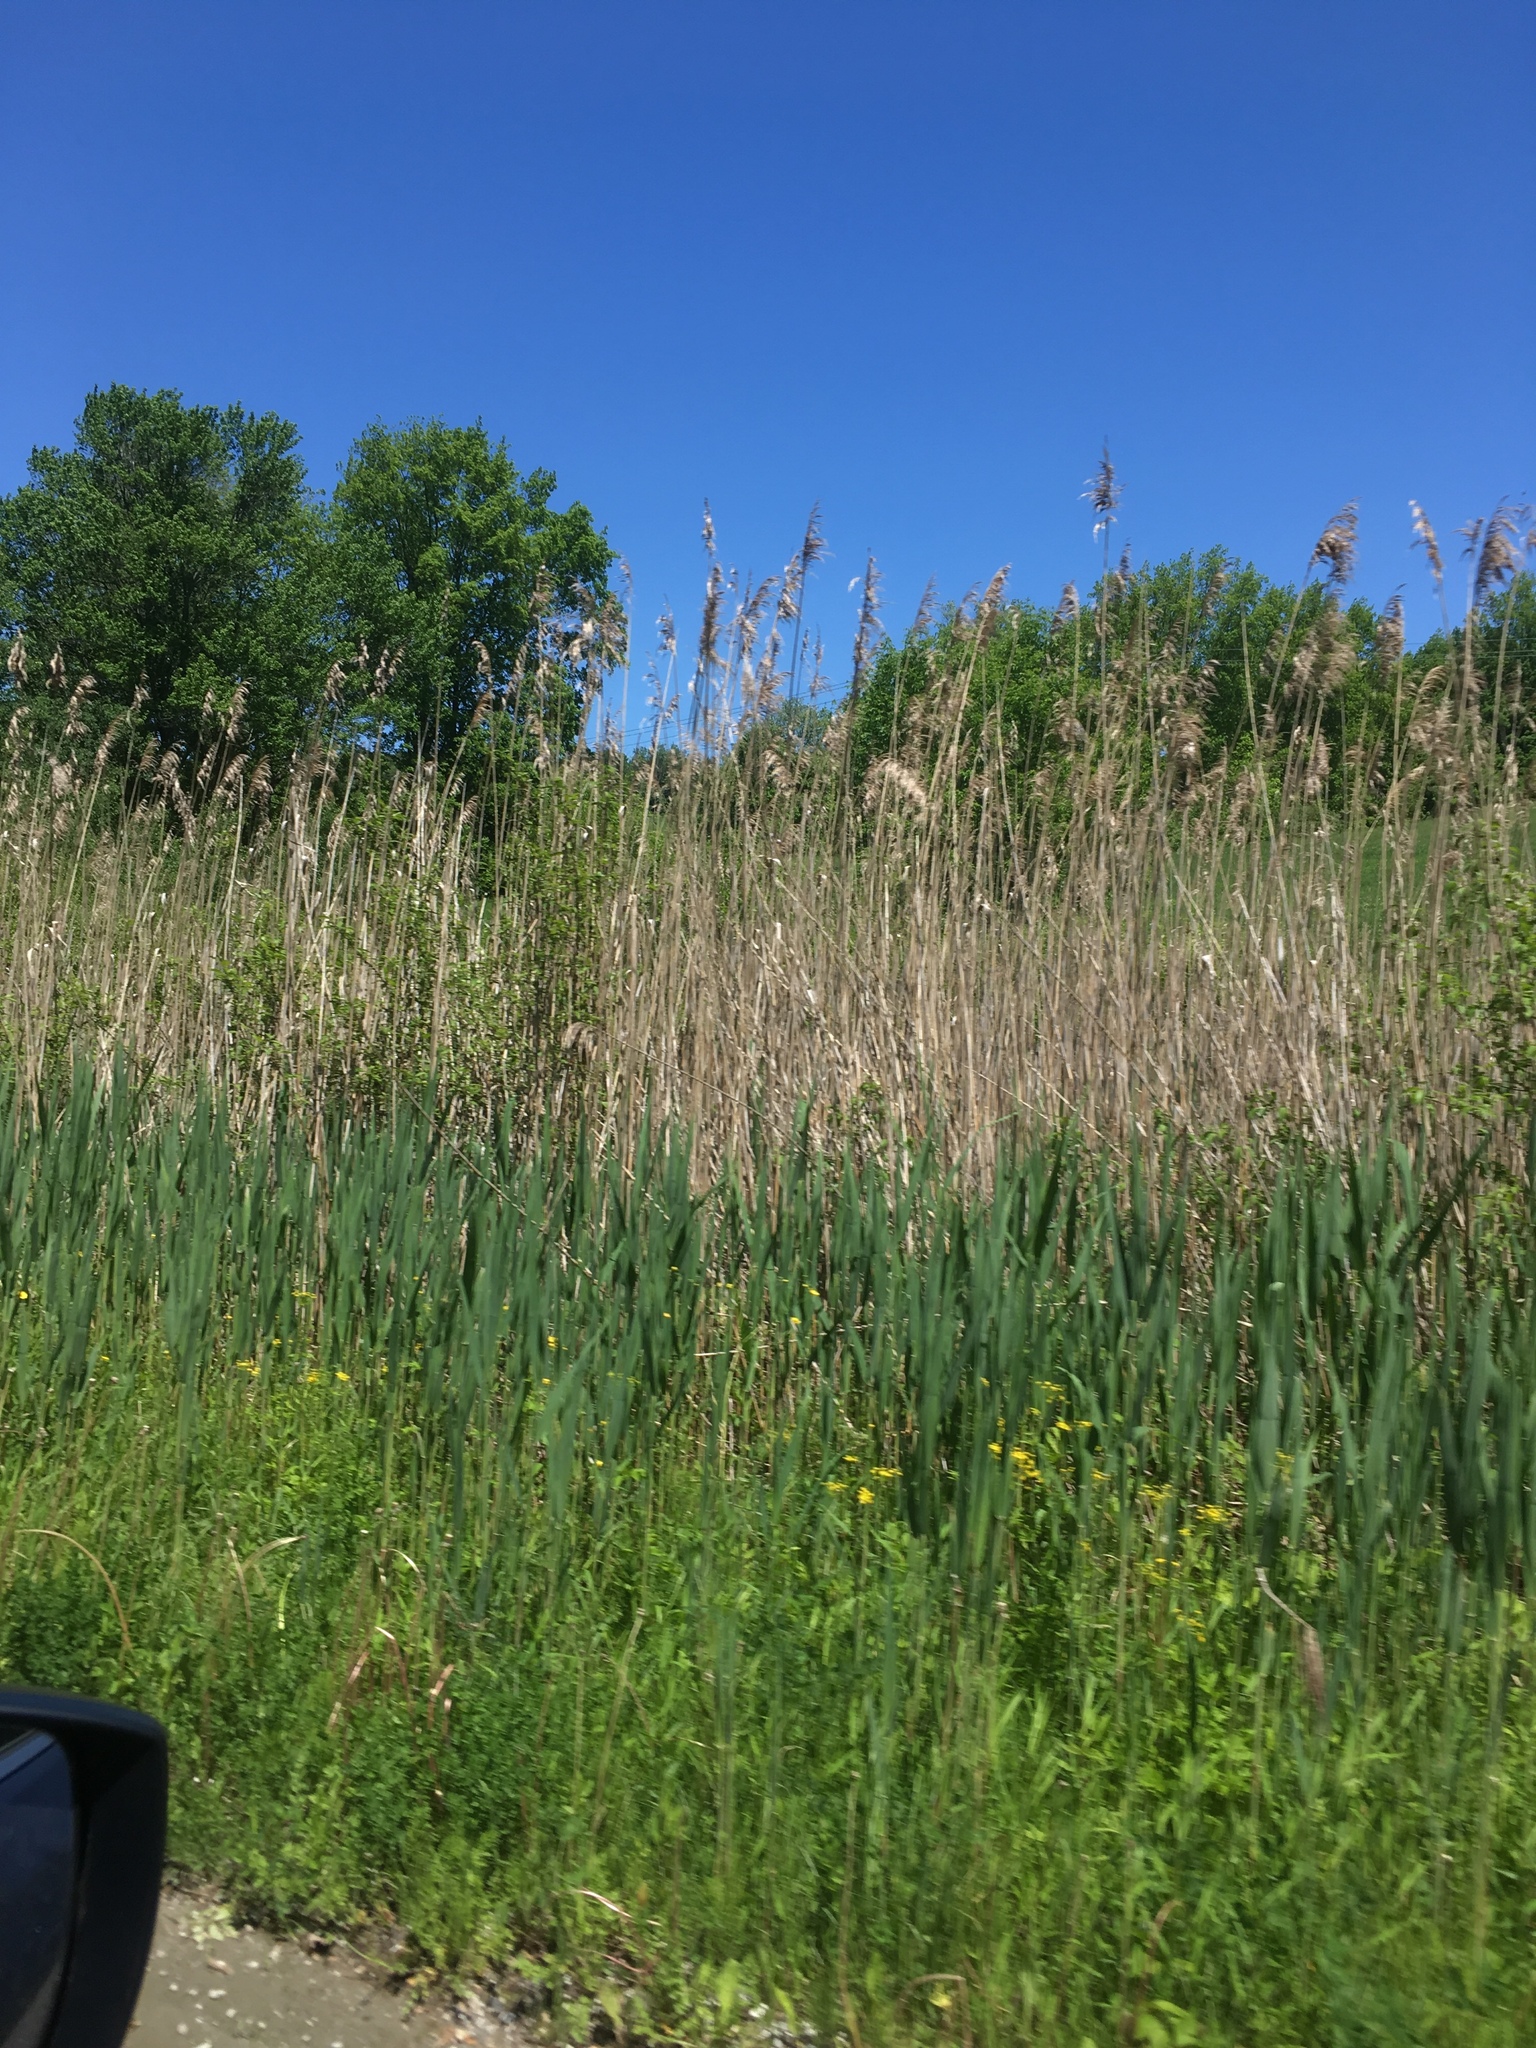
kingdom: Plantae
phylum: Tracheophyta
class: Liliopsida
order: Poales
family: Poaceae
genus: Phragmites
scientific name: Phragmites australis
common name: Common reed
